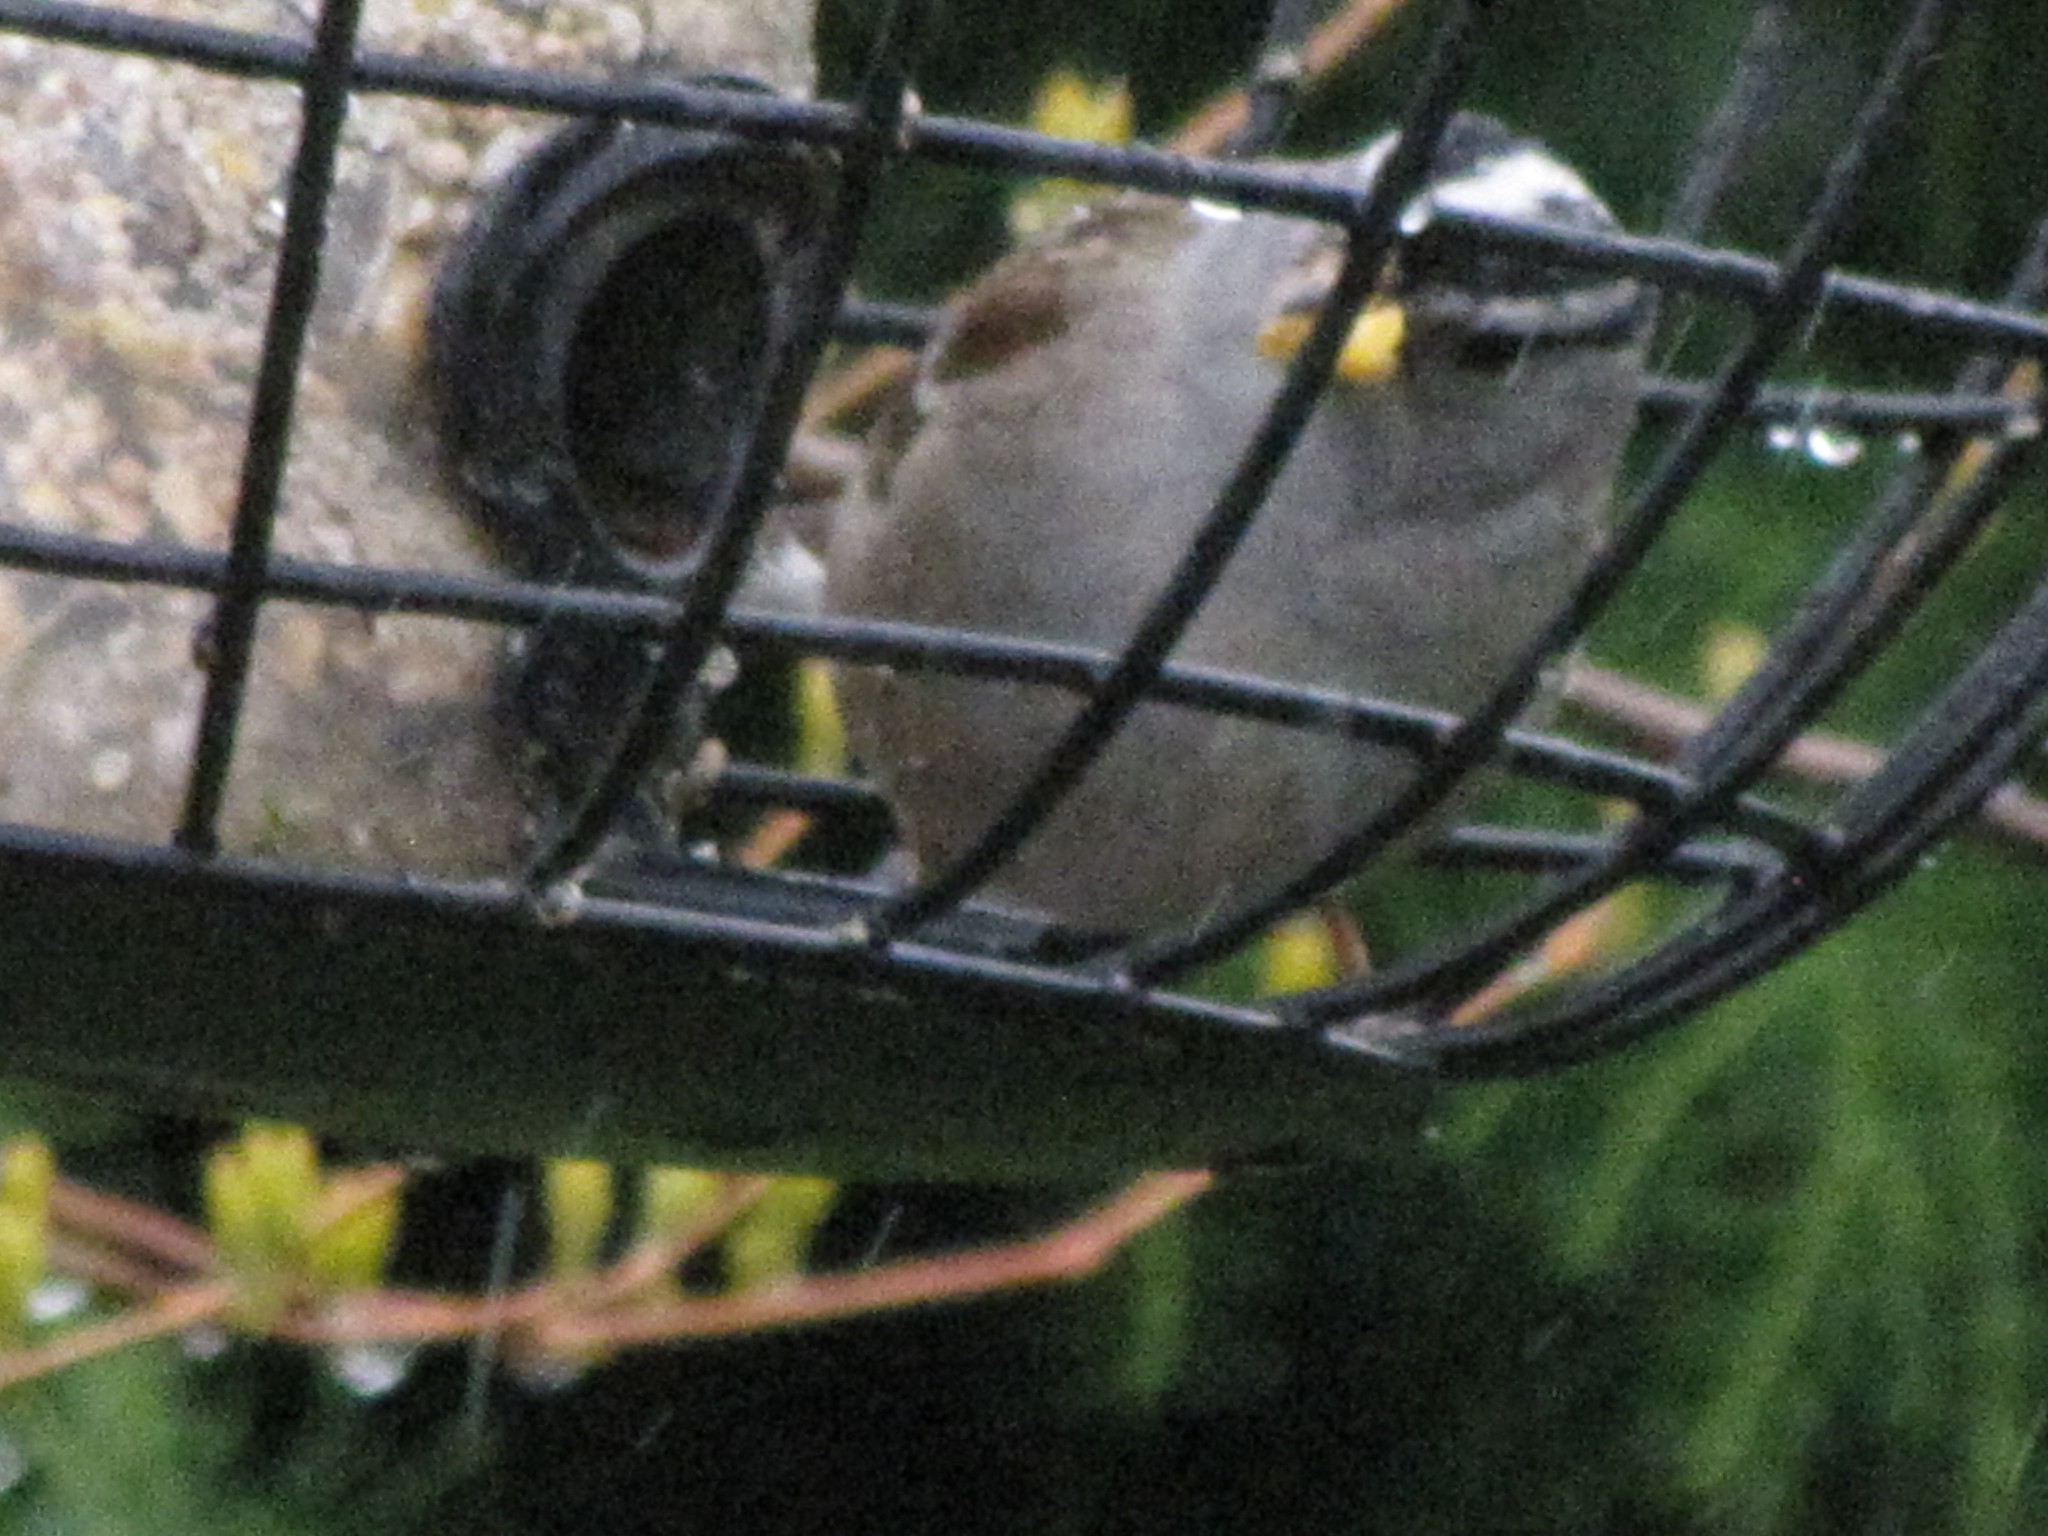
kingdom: Animalia
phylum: Chordata
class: Aves
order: Passeriformes
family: Passerellidae
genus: Zonotrichia
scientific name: Zonotrichia leucophrys
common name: White-crowned sparrow
